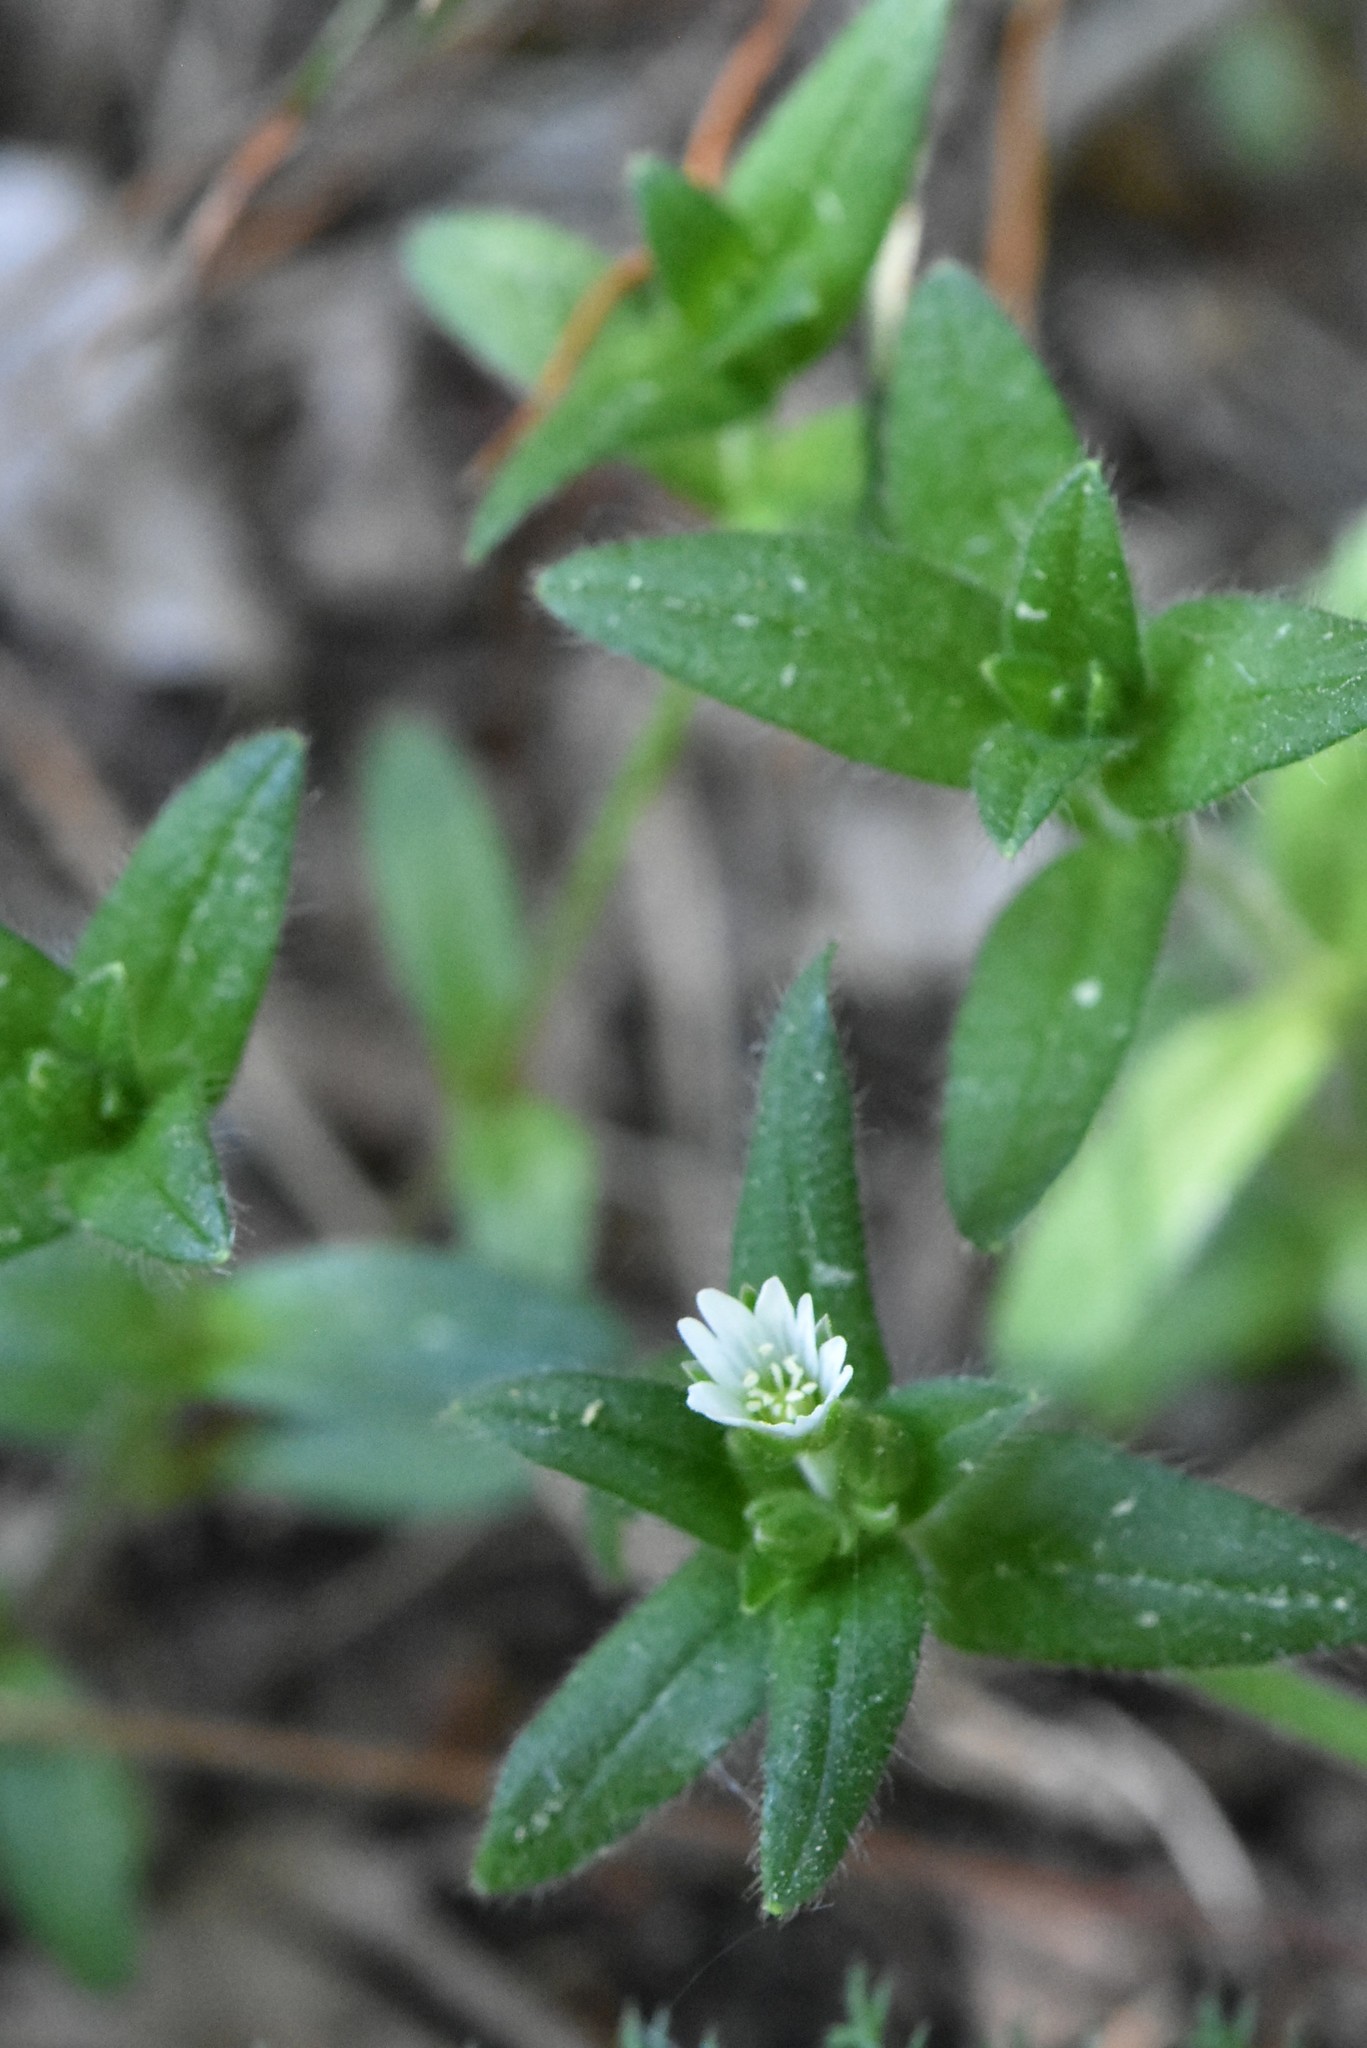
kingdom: Plantae
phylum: Tracheophyta
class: Magnoliopsida
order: Caryophyllales
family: Caryophyllaceae
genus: Cerastium
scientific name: Cerastium holosteoides
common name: Big chickweed
